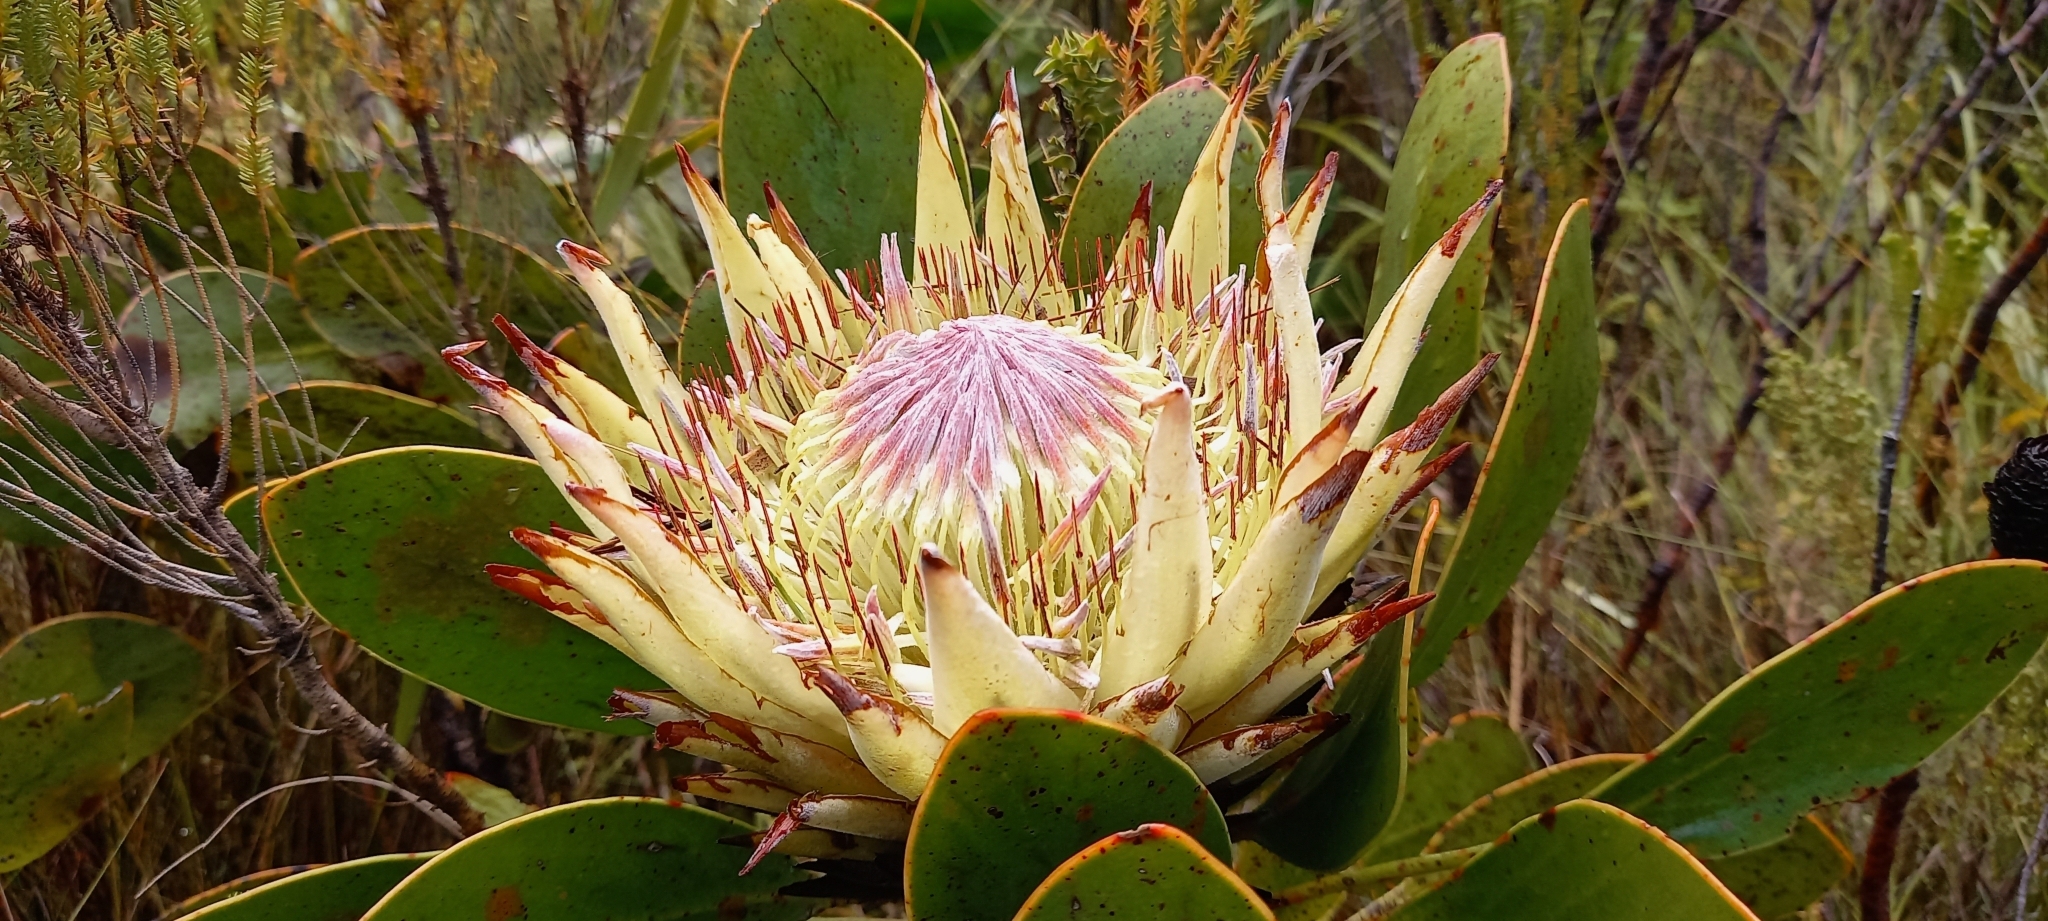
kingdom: Plantae
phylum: Tracheophyta
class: Magnoliopsida
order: Proteales
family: Proteaceae
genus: Protea
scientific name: Protea cynaroides
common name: King protea
